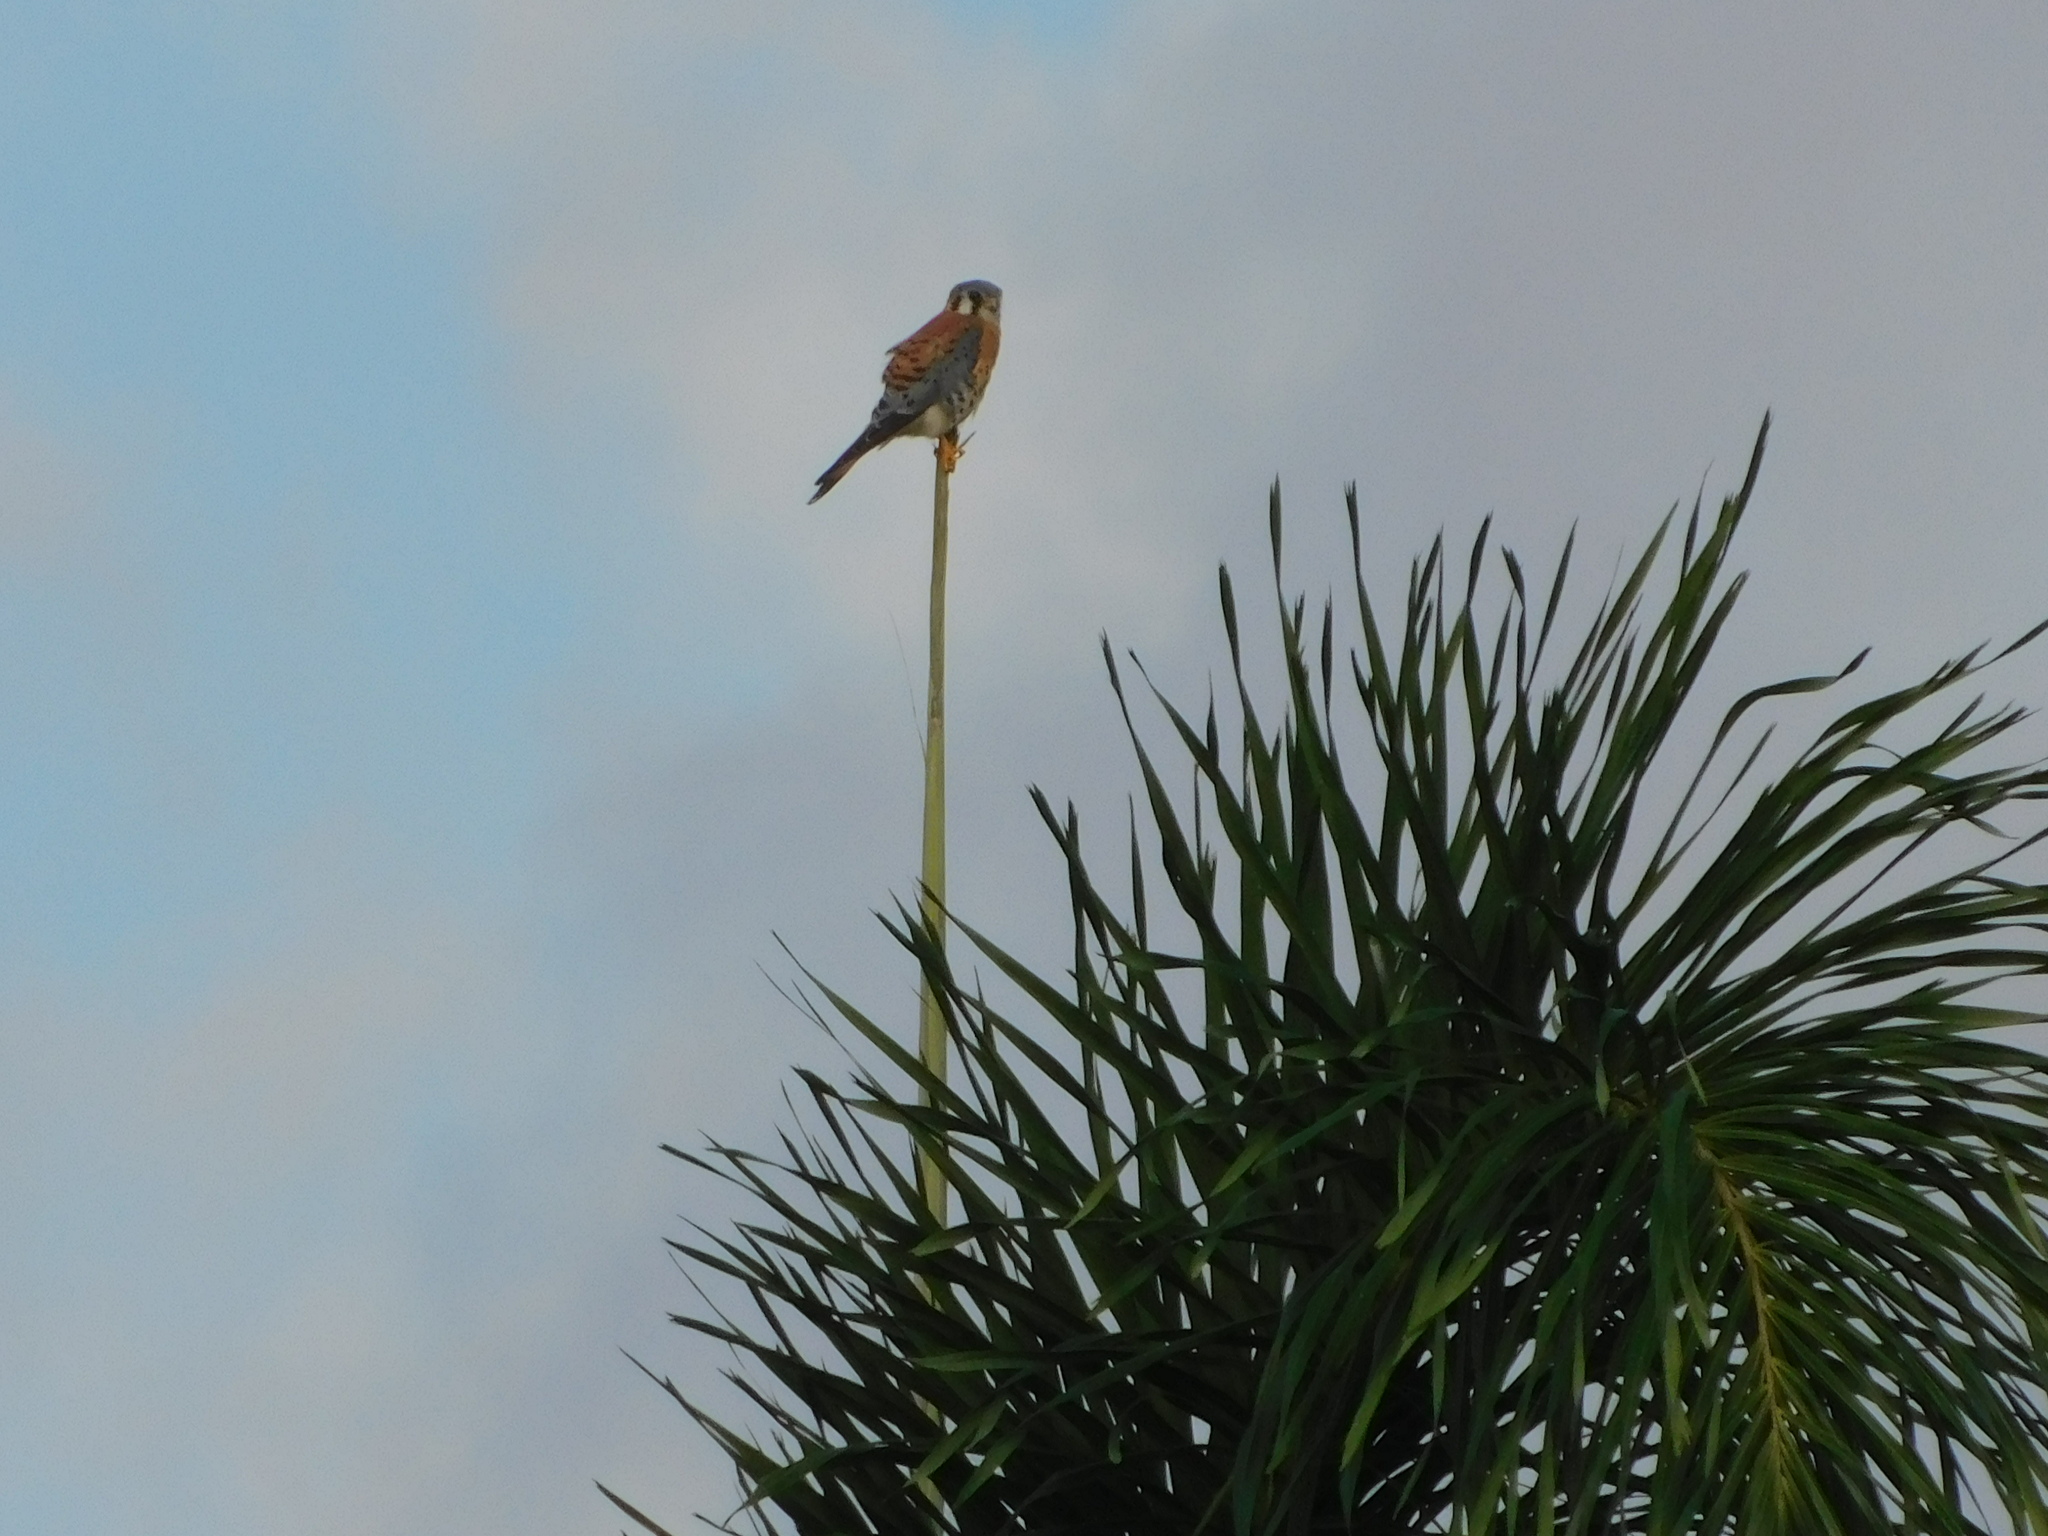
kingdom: Animalia
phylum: Chordata
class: Aves
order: Falconiformes
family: Falconidae
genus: Falco
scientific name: Falco sparverius
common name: American kestrel
